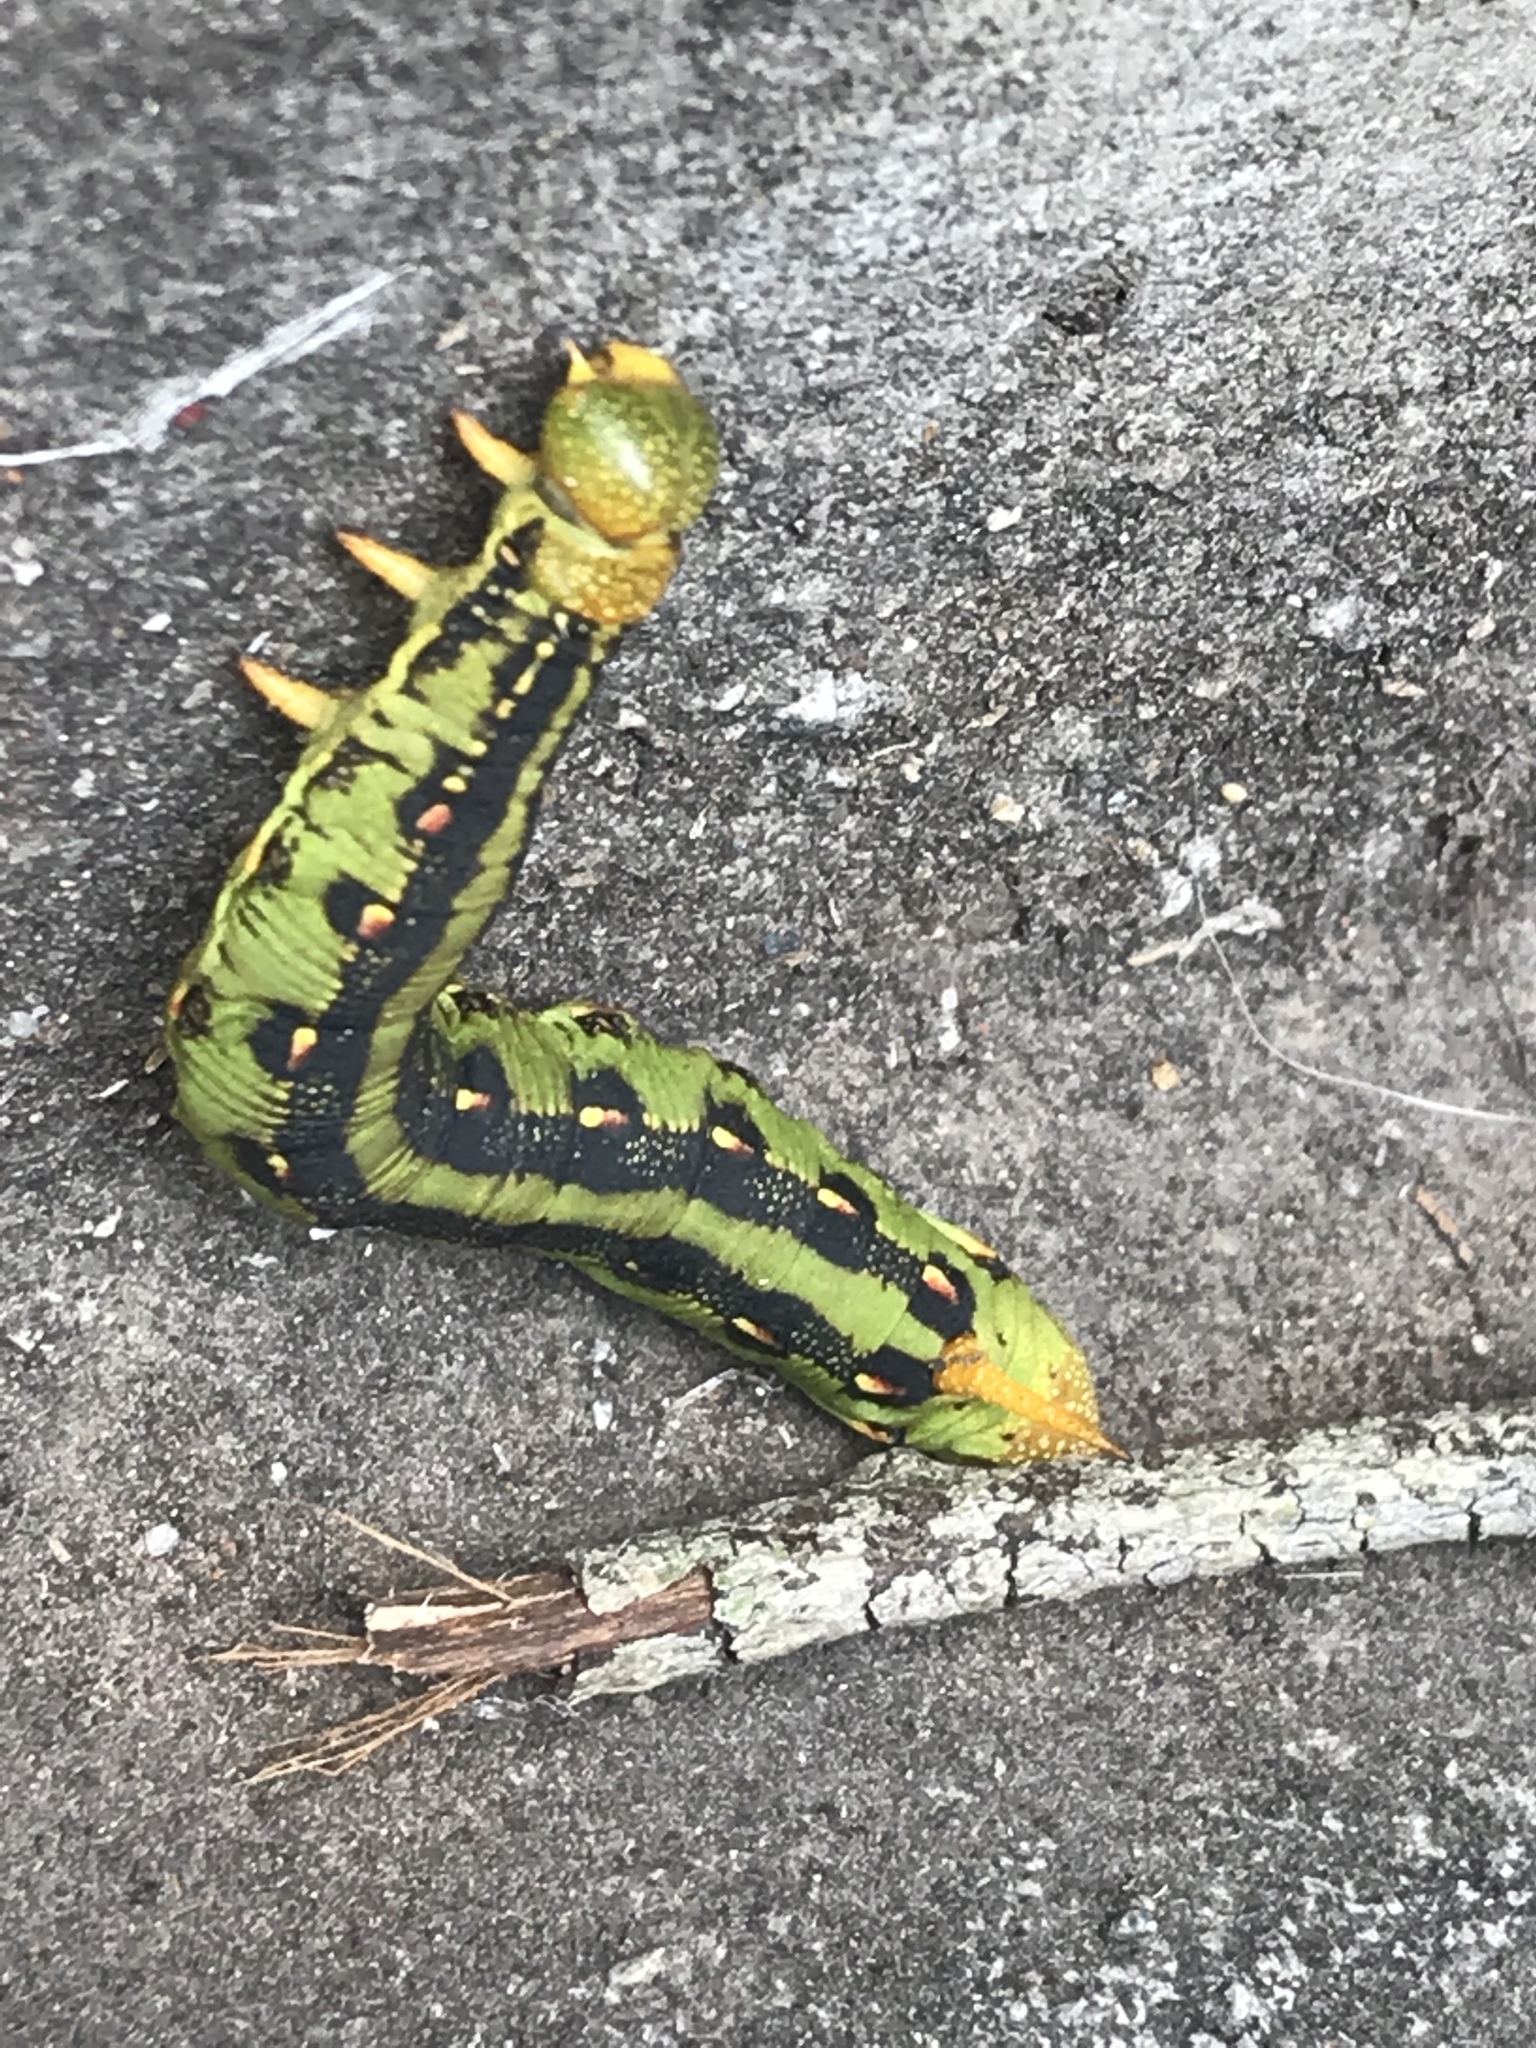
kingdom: Animalia
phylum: Arthropoda
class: Insecta
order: Lepidoptera
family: Sphingidae
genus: Hyles
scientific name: Hyles lineata
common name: White-lined sphinx
